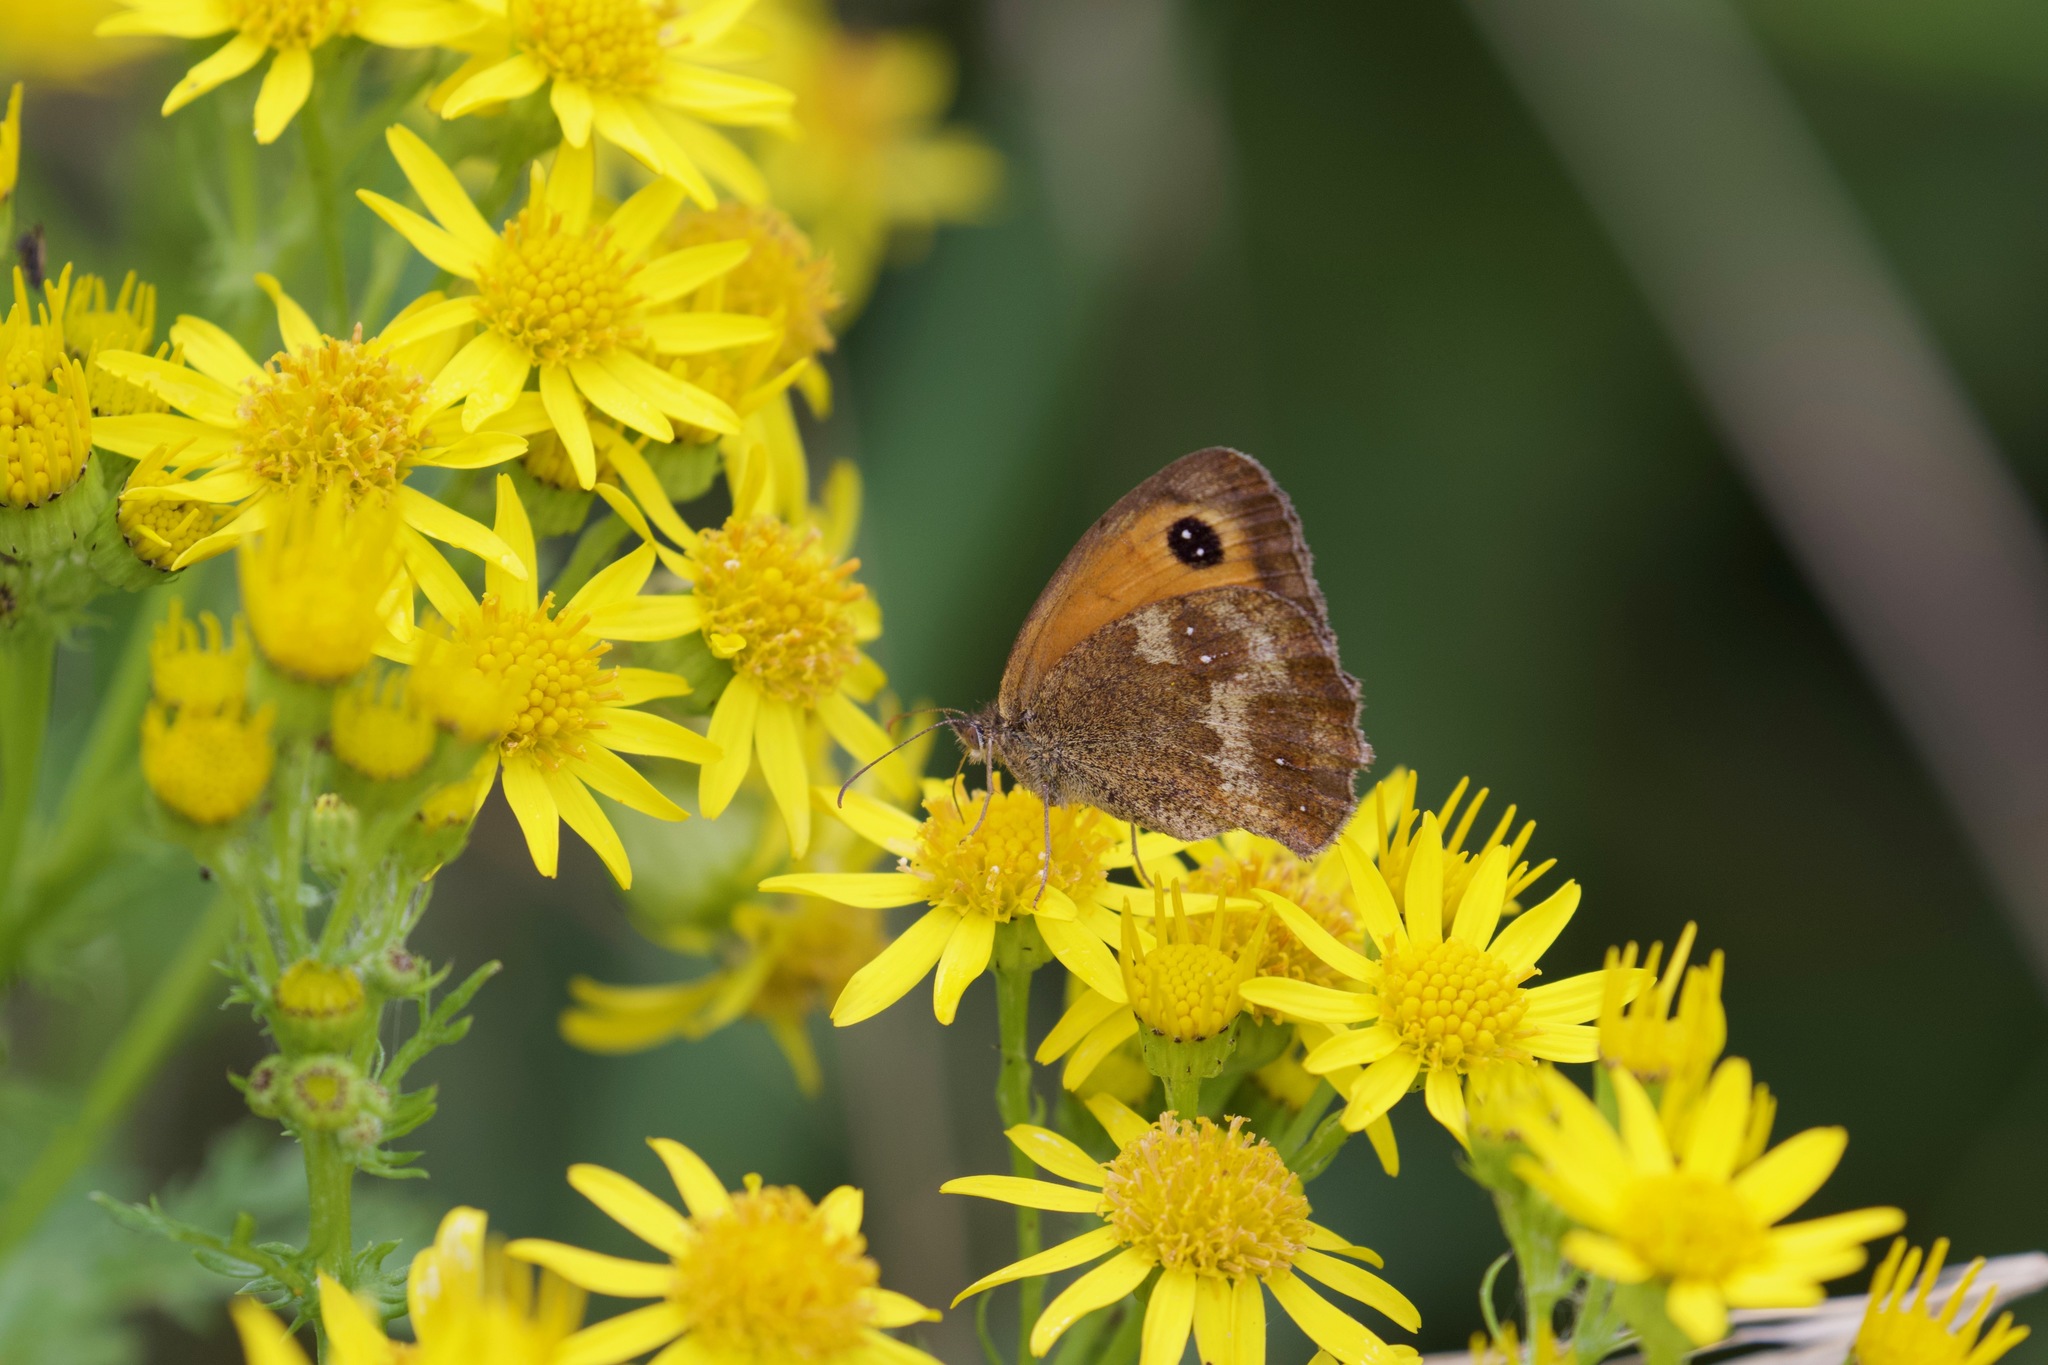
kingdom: Animalia
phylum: Arthropoda
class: Insecta
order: Lepidoptera
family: Nymphalidae
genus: Pyronia
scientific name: Pyronia tithonus
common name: Gatekeeper
